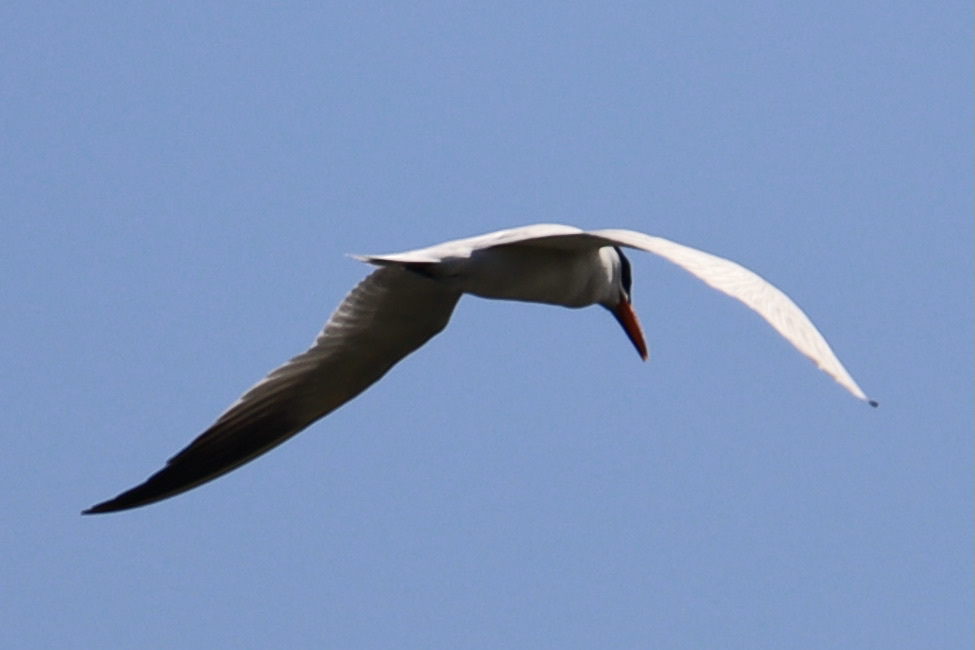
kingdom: Animalia
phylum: Chordata
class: Aves
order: Charadriiformes
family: Laridae
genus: Hydroprogne
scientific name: Hydroprogne caspia
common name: Caspian tern
